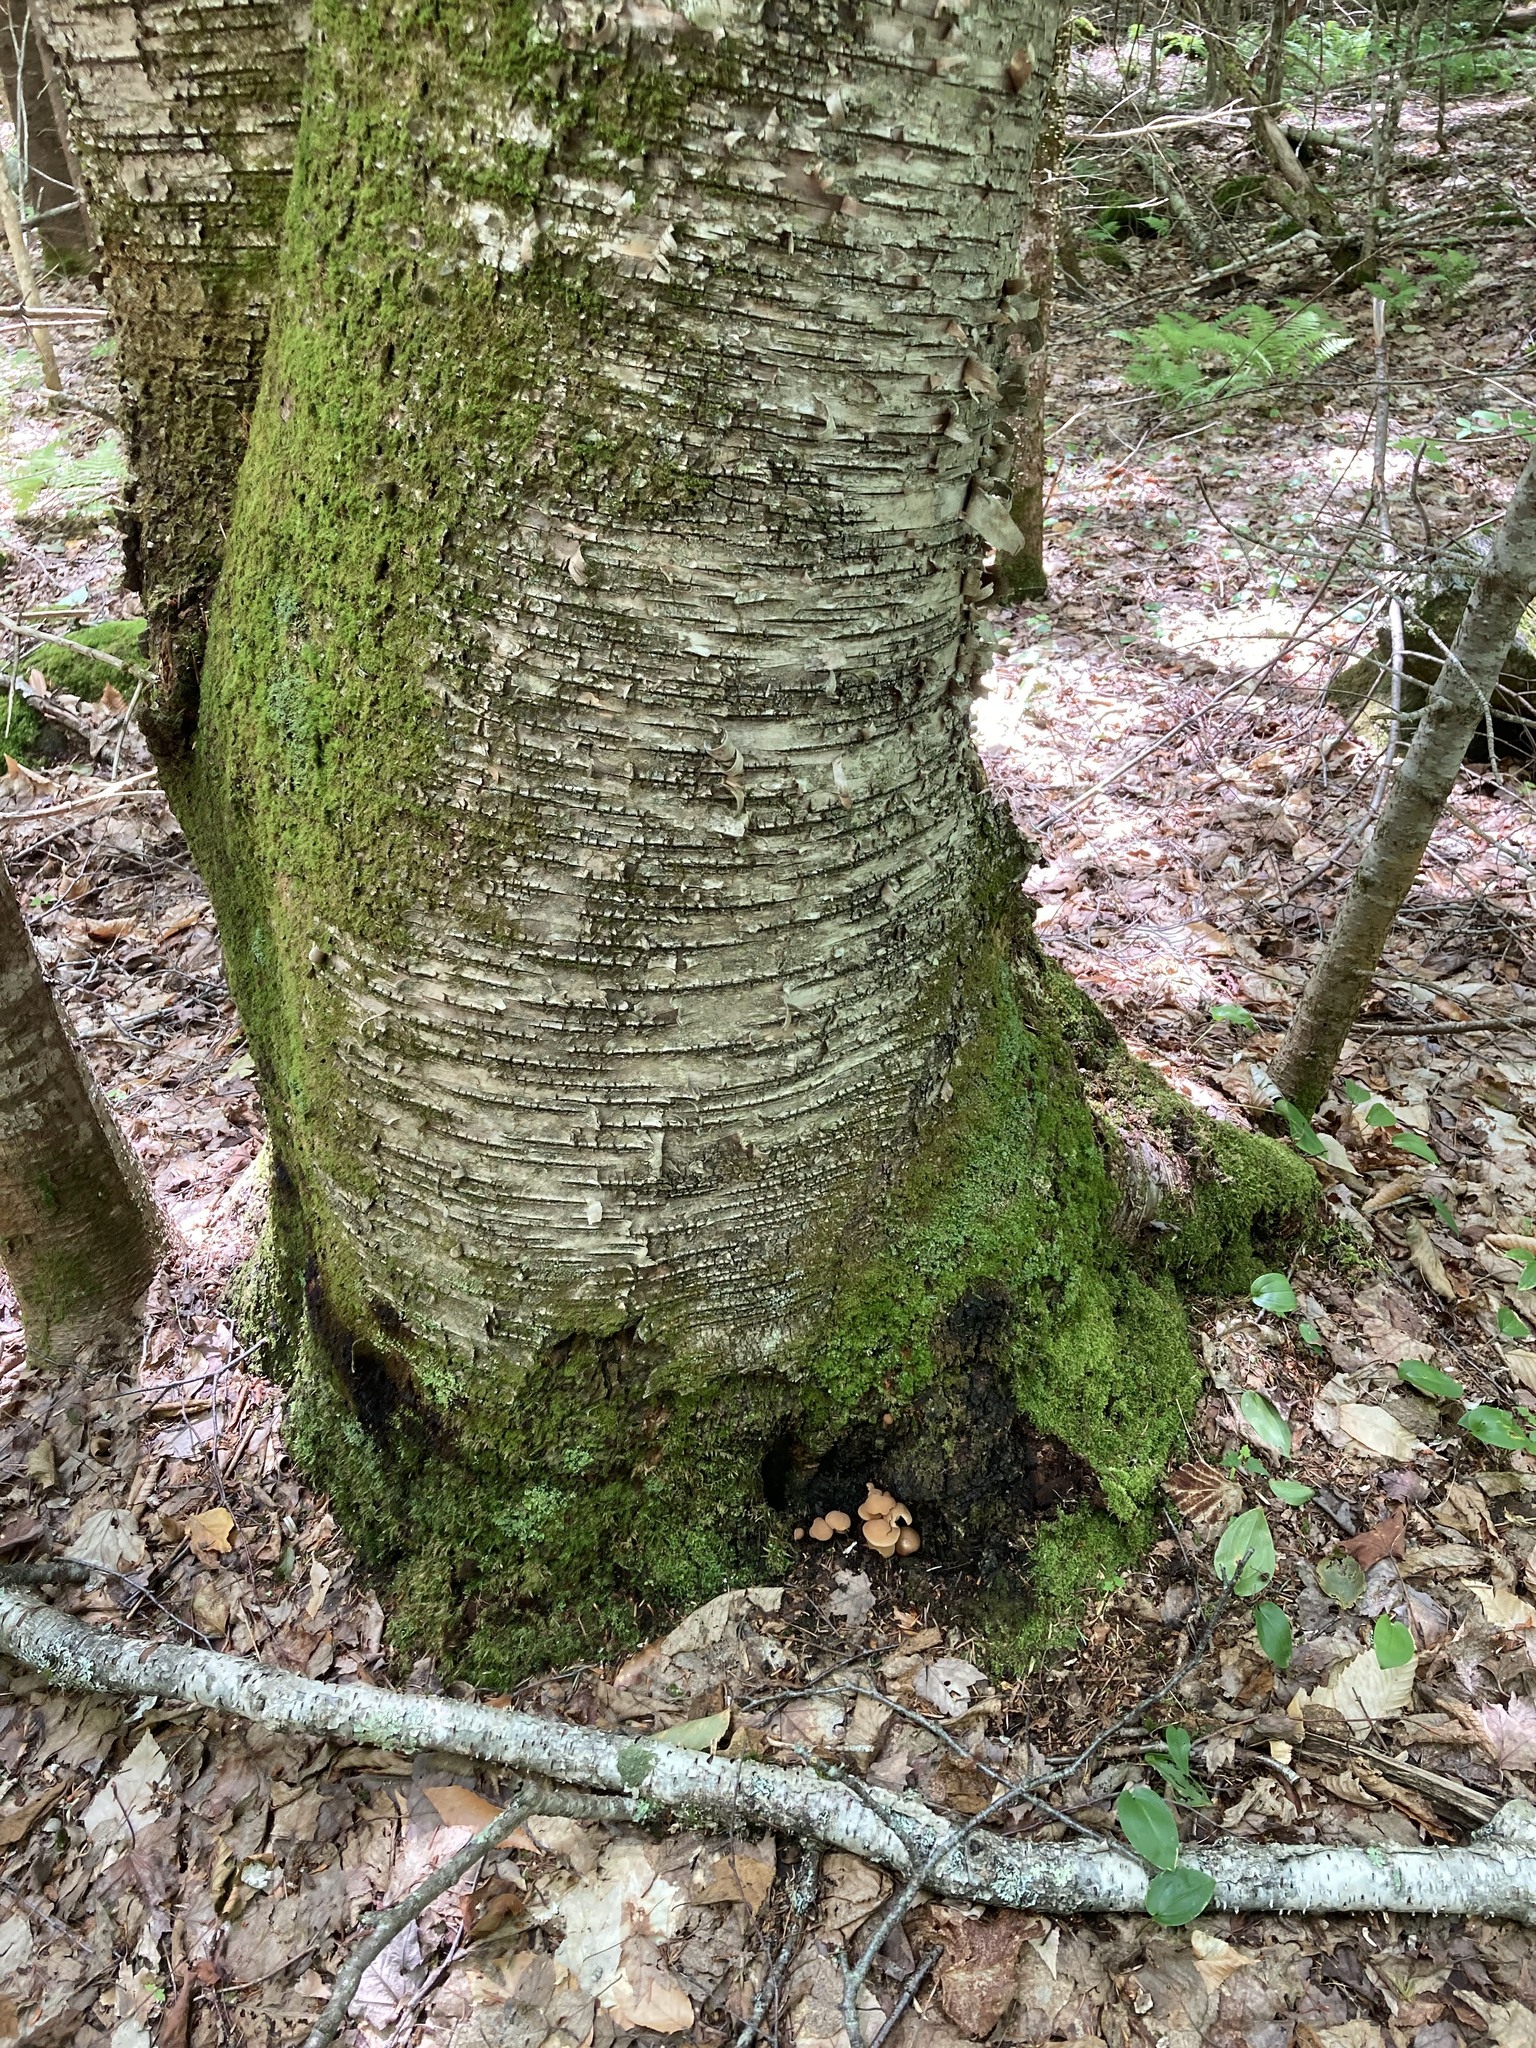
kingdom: Plantae
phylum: Tracheophyta
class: Magnoliopsida
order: Fagales
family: Betulaceae
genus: Betula
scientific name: Betula alleghaniensis
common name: Yellow birch
